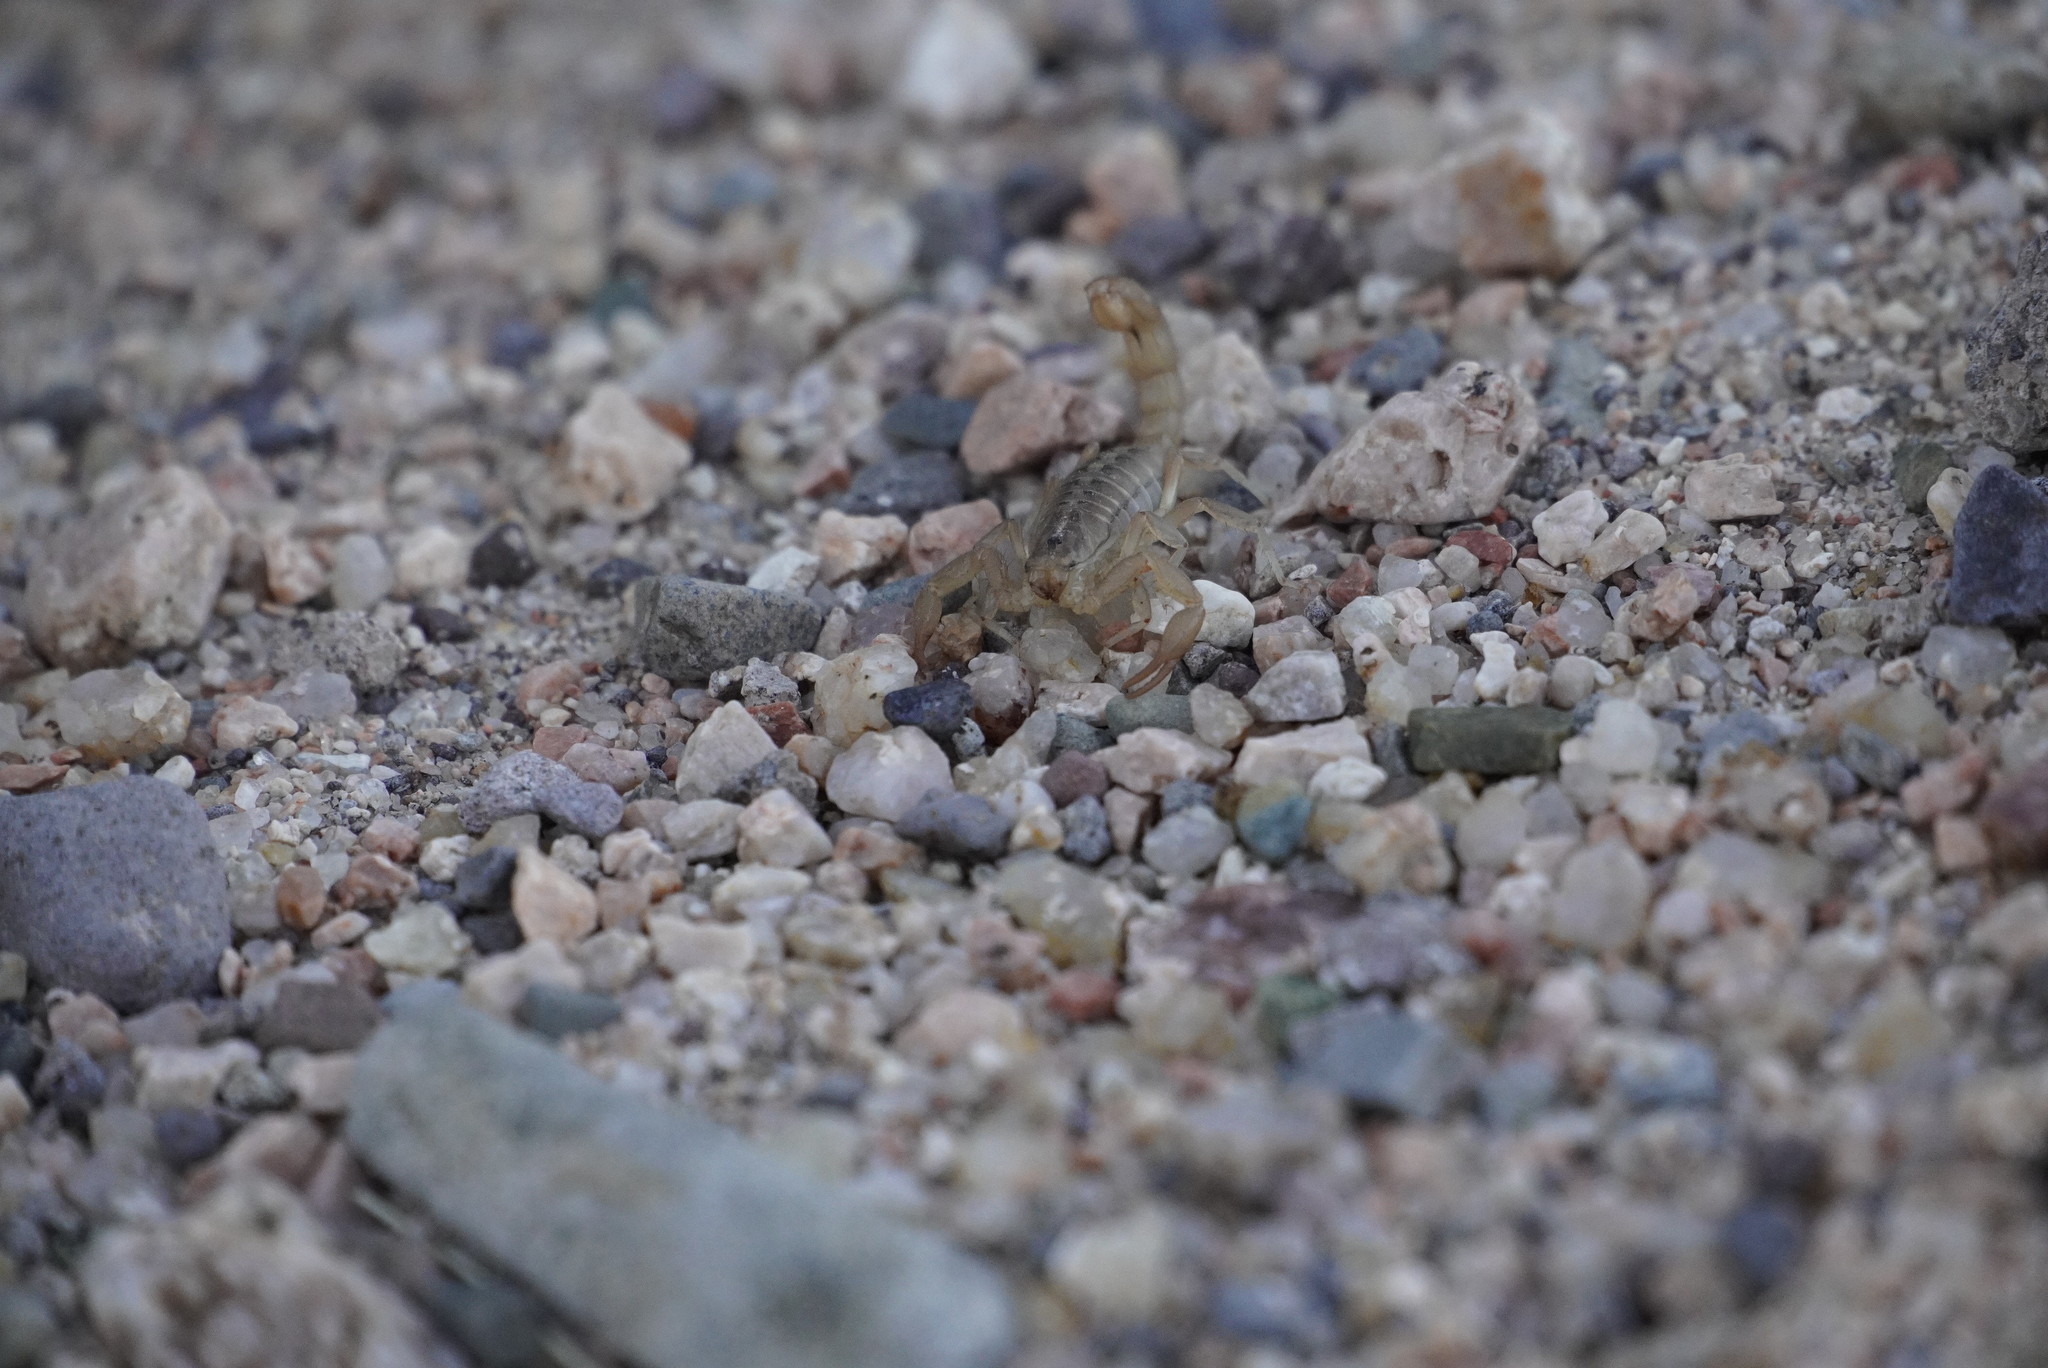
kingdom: Animalia
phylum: Arthropoda
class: Arachnida
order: Scorpiones
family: Vaejovidae
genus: Paravaejovis
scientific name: Paravaejovis spinigerus
